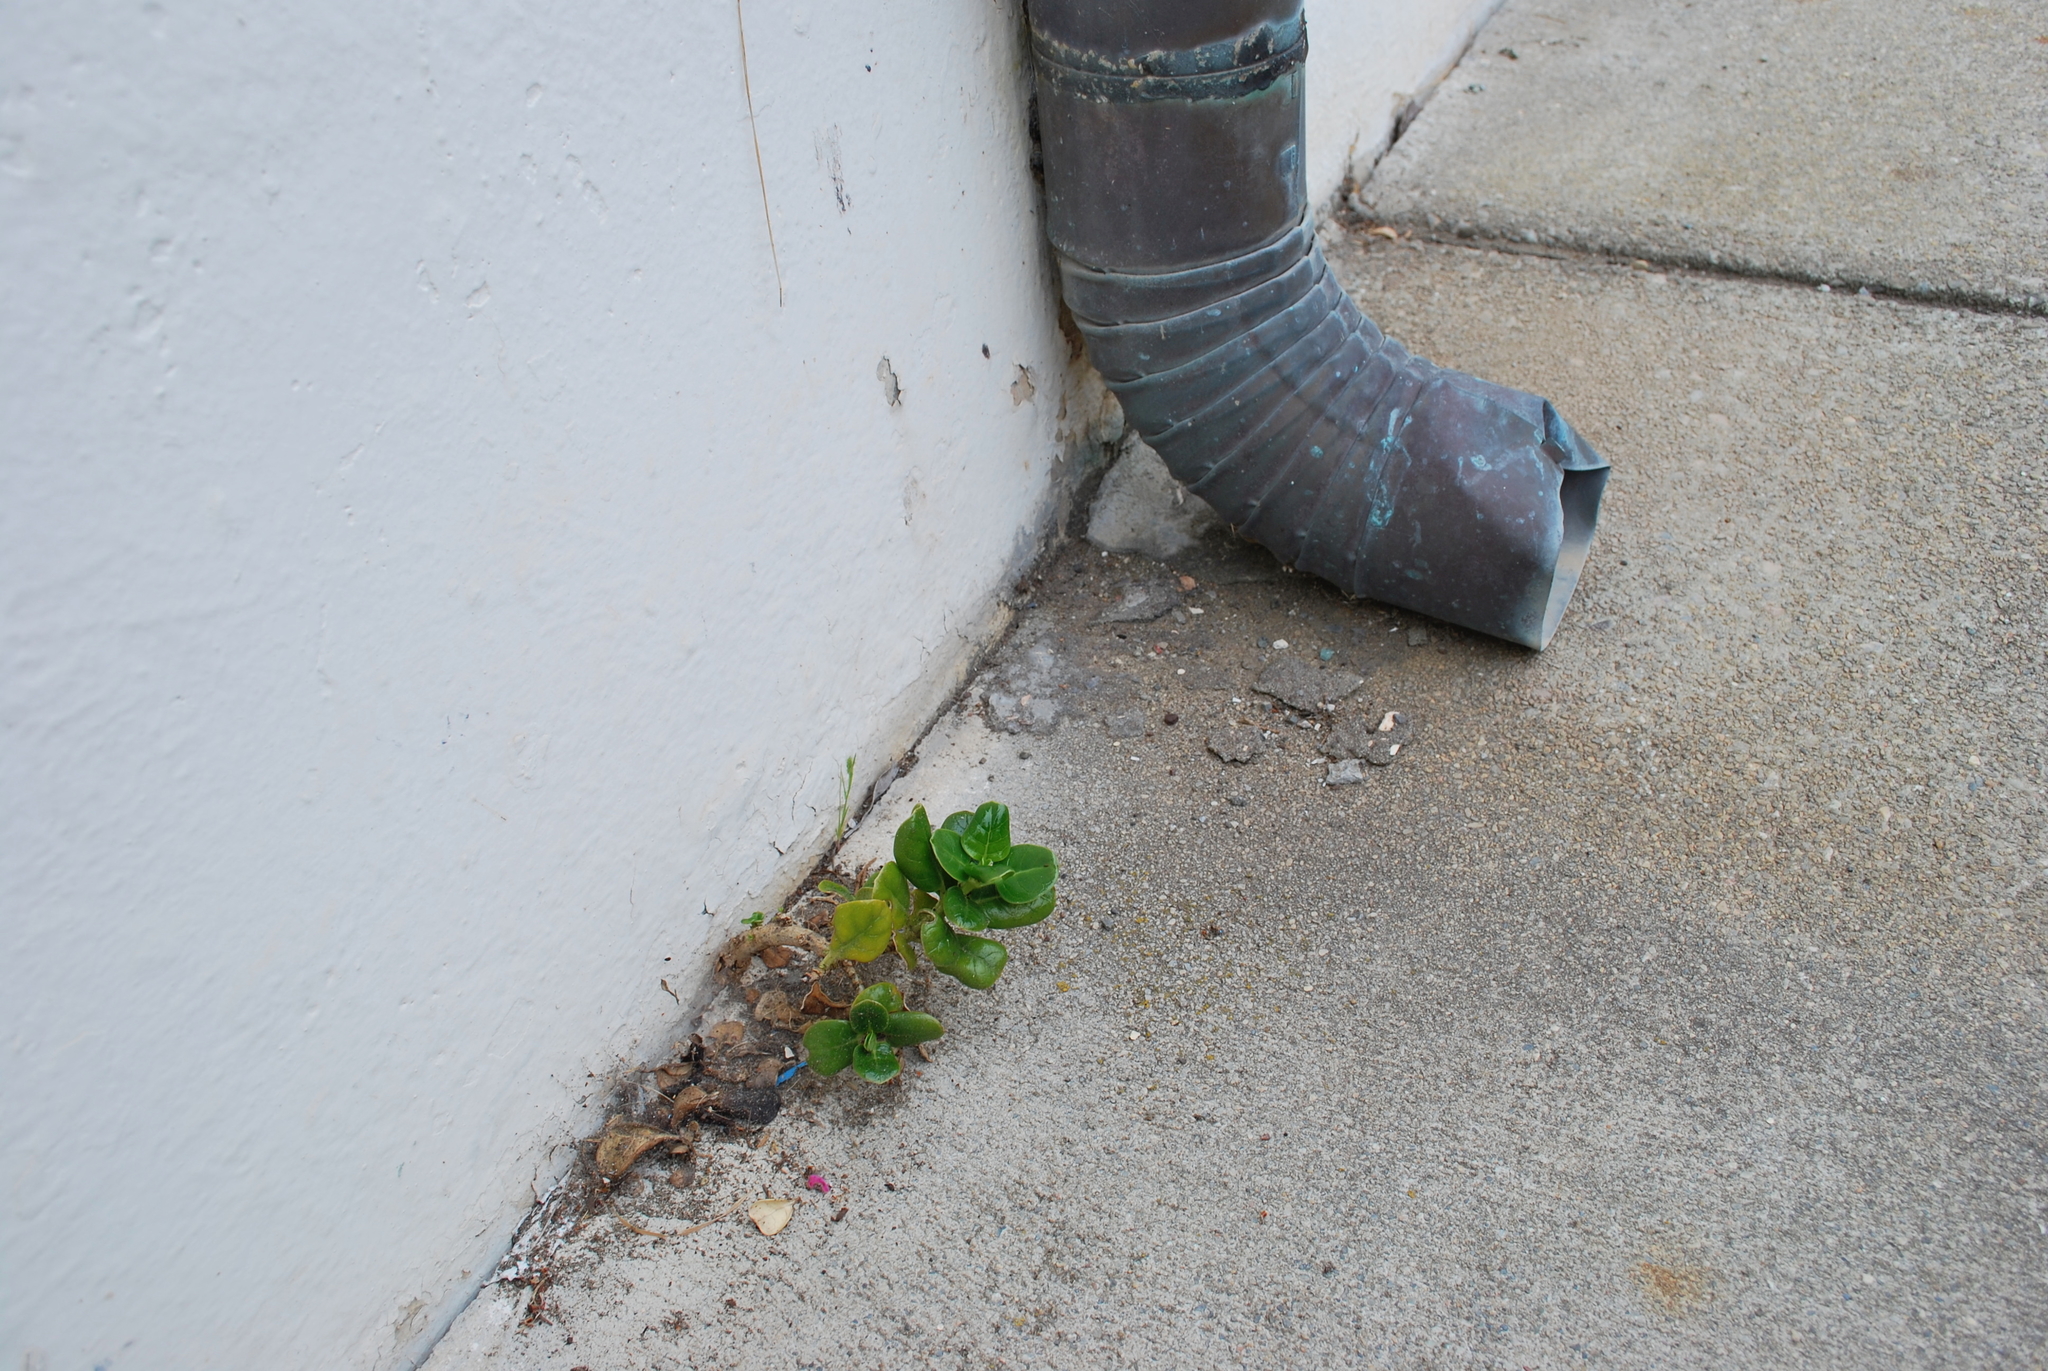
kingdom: Plantae
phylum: Tracheophyta
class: Magnoliopsida
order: Gentianales
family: Rubiaceae
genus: Coprosma
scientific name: Coprosma repens
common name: Tree bedstraw
